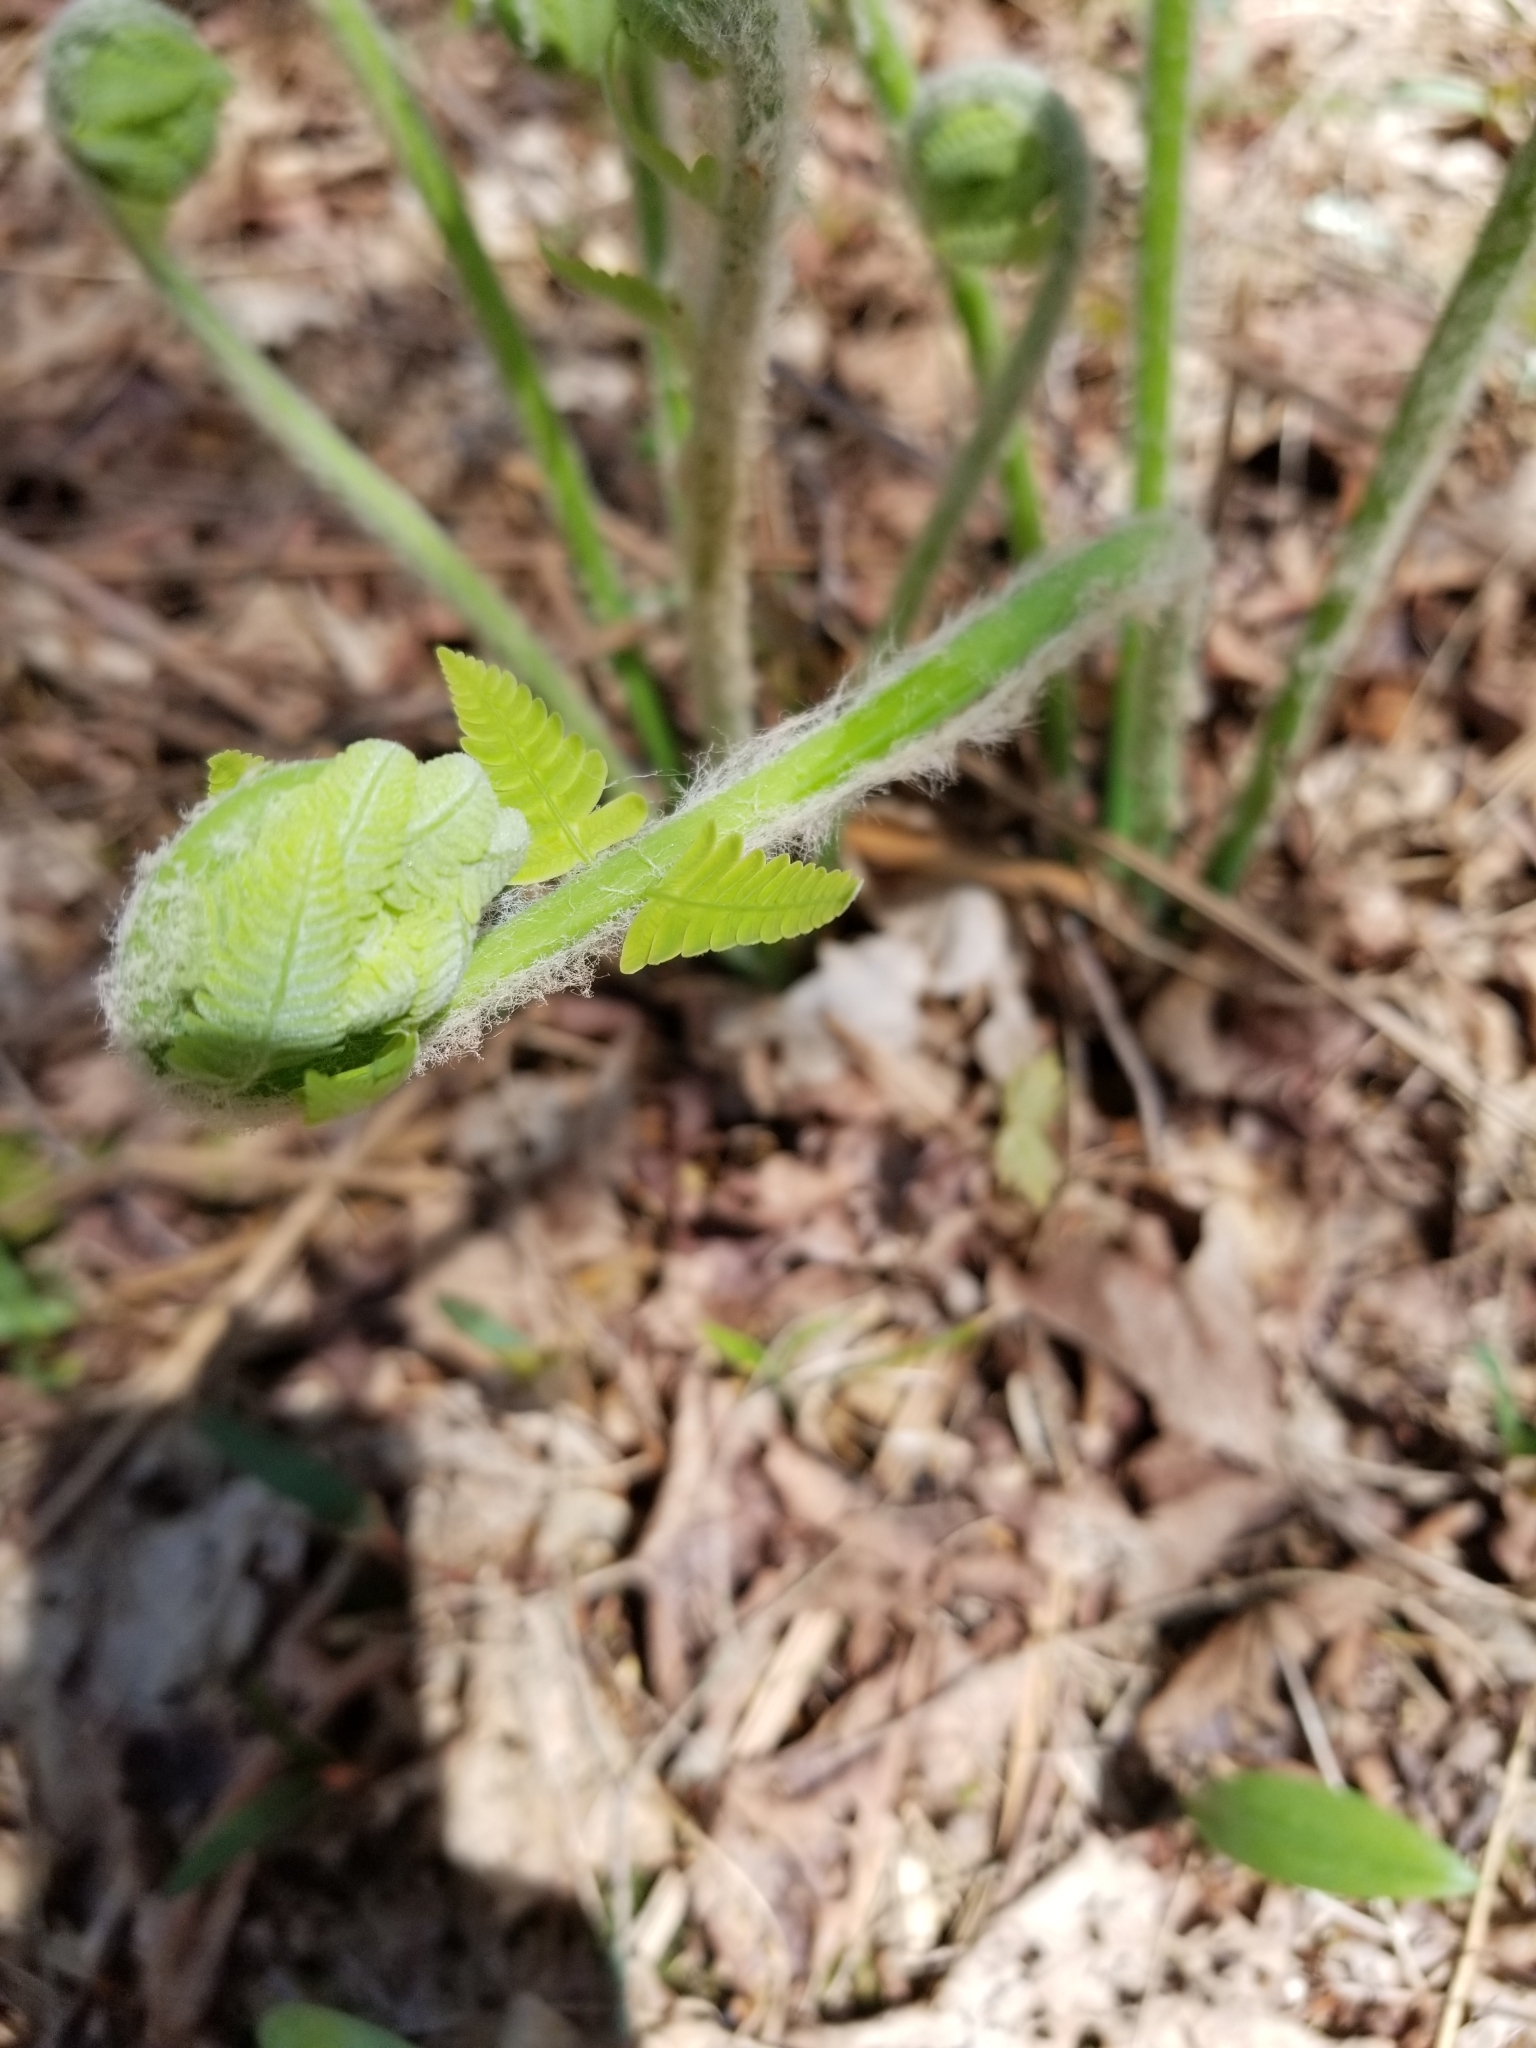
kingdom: Plantae
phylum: Tracheophyta
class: Polypodiopsida
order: Osmundales
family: Osmundaceae
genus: Claytosmunda
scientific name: Claytosmunda claytoniana
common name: Clayton's fern
